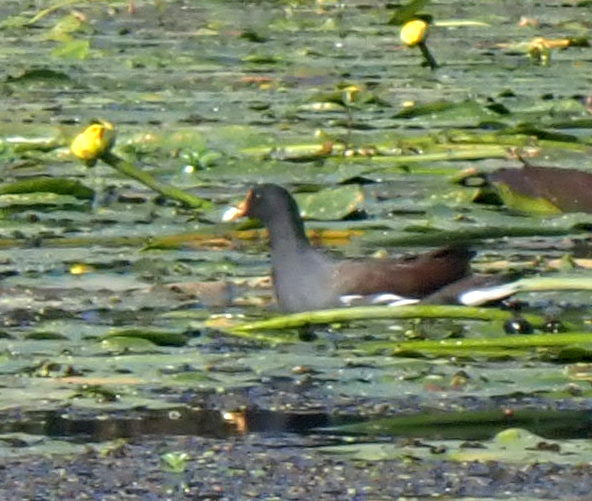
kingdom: Animalia
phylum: Chordata
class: Aves
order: Gruiformes
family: Rallidae
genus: Gallinula
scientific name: Gallinula chloropus
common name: Common moorhen
